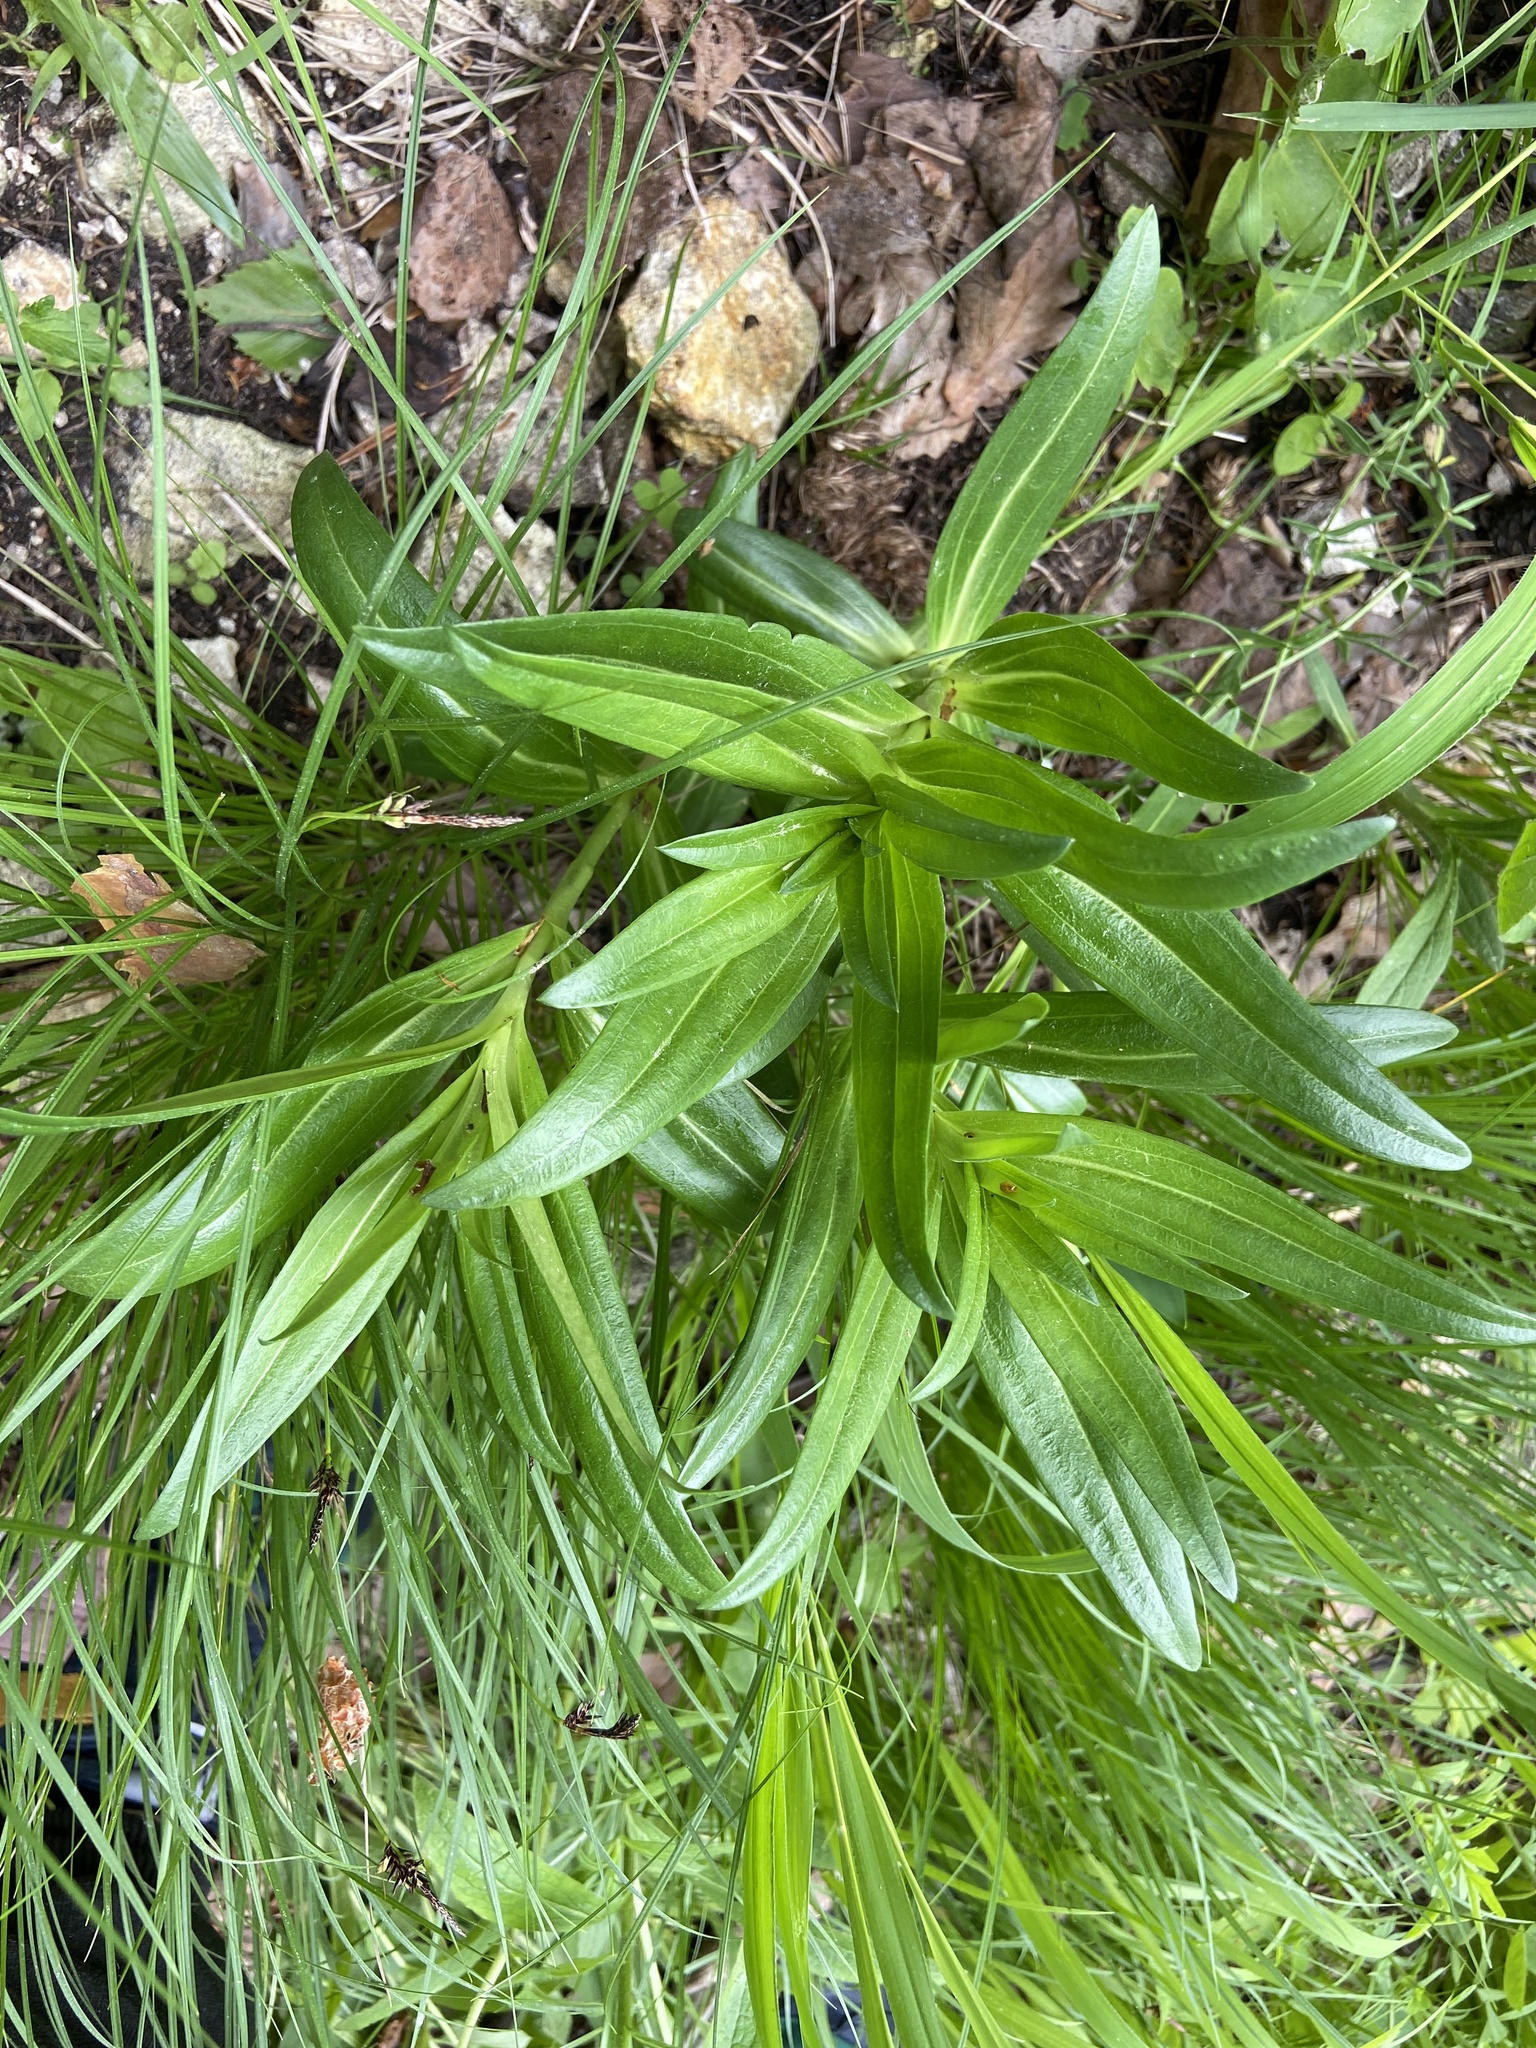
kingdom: Plantae
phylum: Tracheophyta
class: Magnoliopsida
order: Gentianales
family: Gentianaceae
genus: Gentiana
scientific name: Gentiana cruciata
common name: Cross gentian
